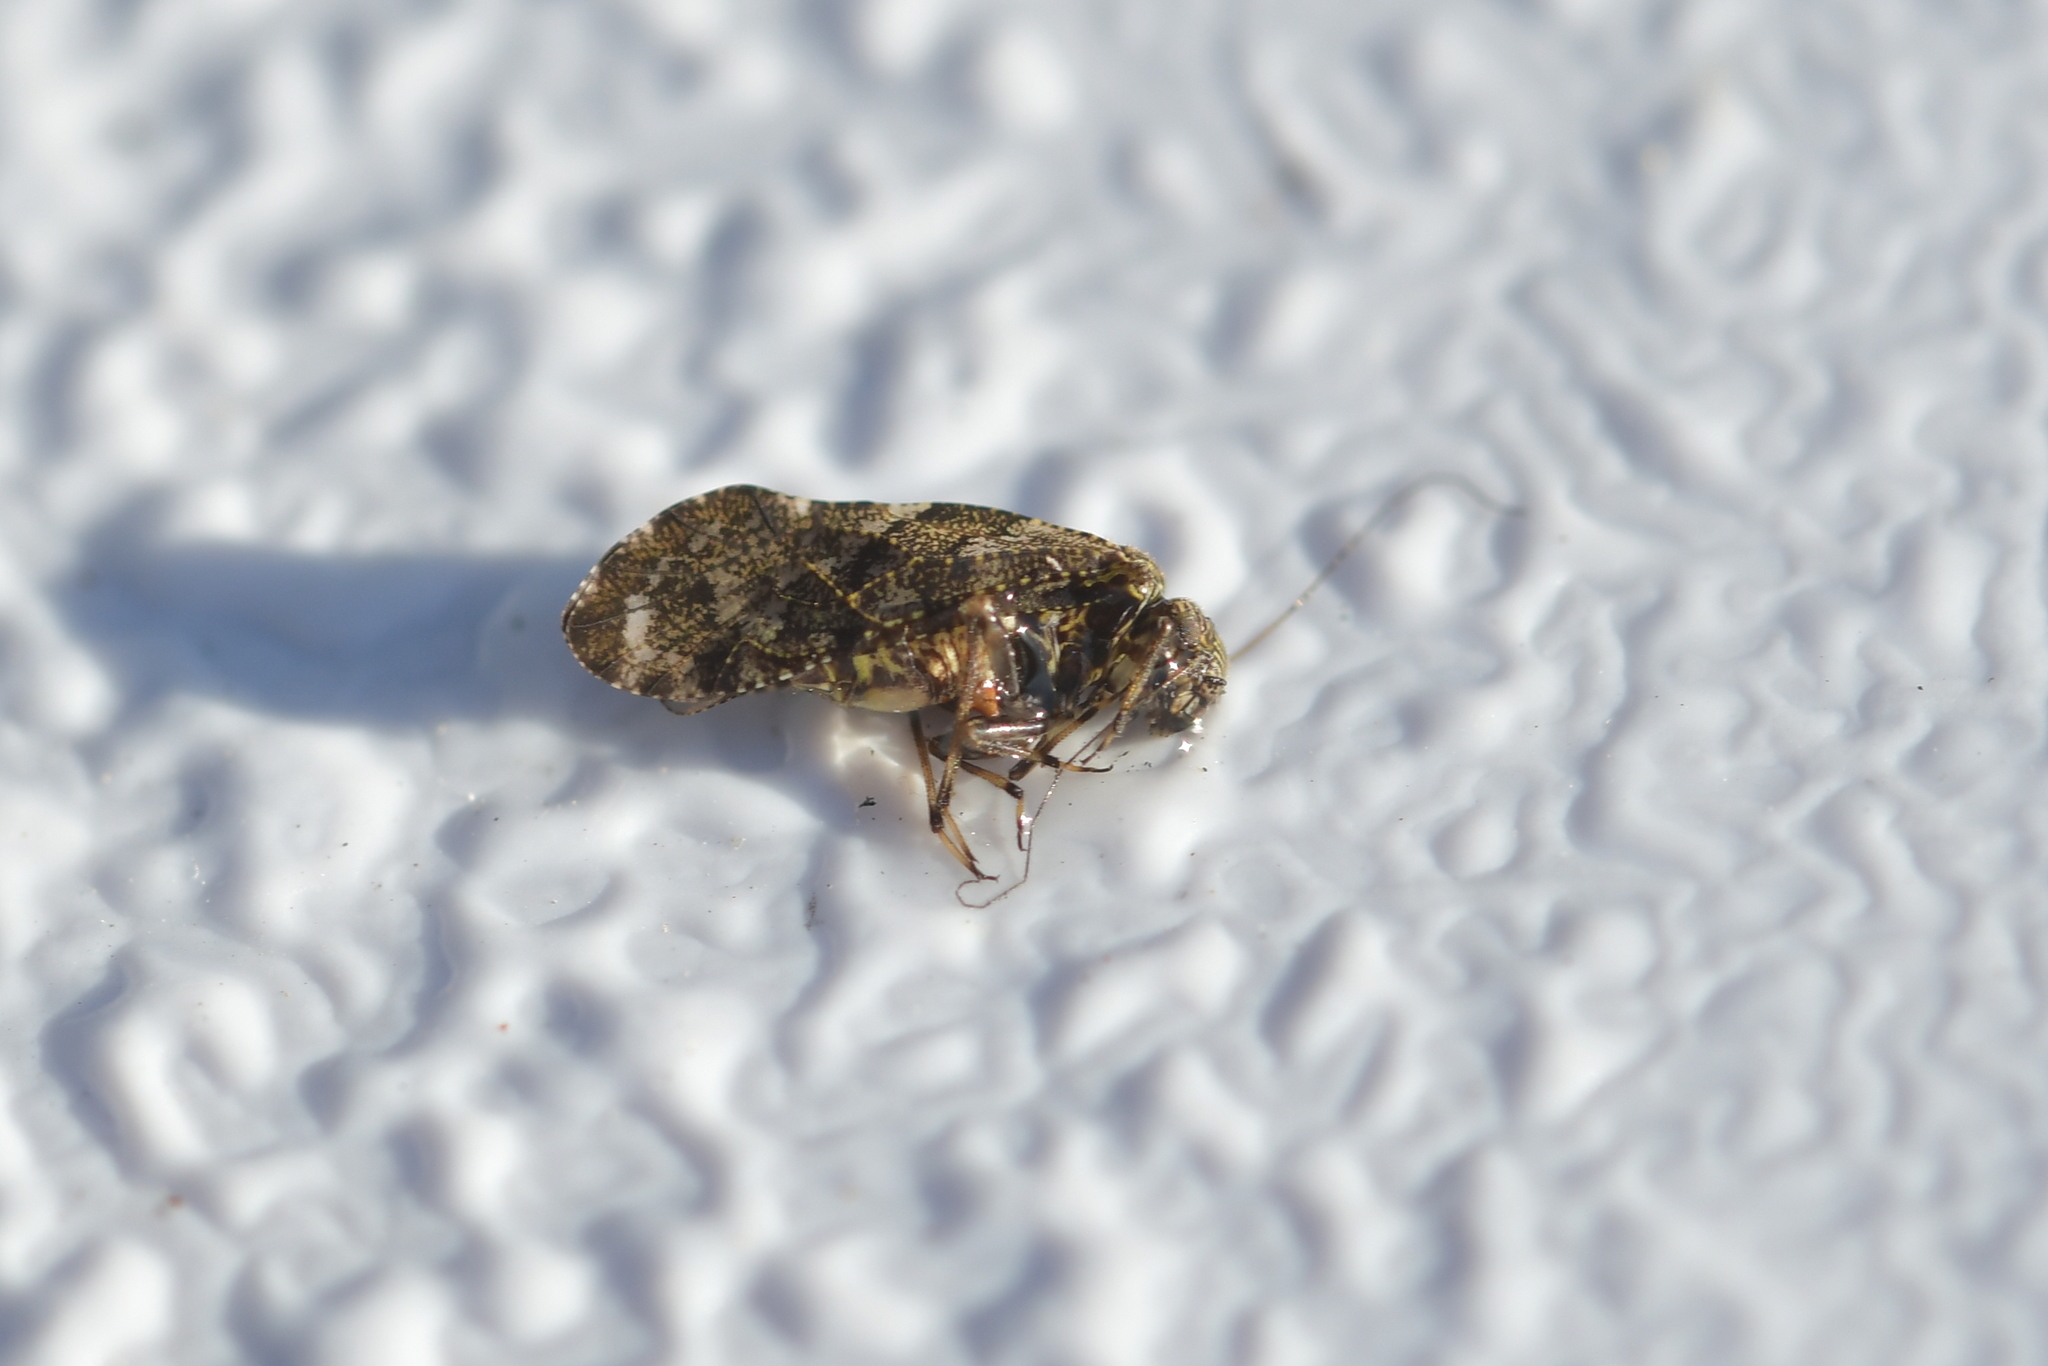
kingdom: Animalia
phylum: Arthropoda
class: Insecta
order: Psocodea
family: Myopsocidae
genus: Nimbopsocus
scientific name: Nimbopsocus australis
